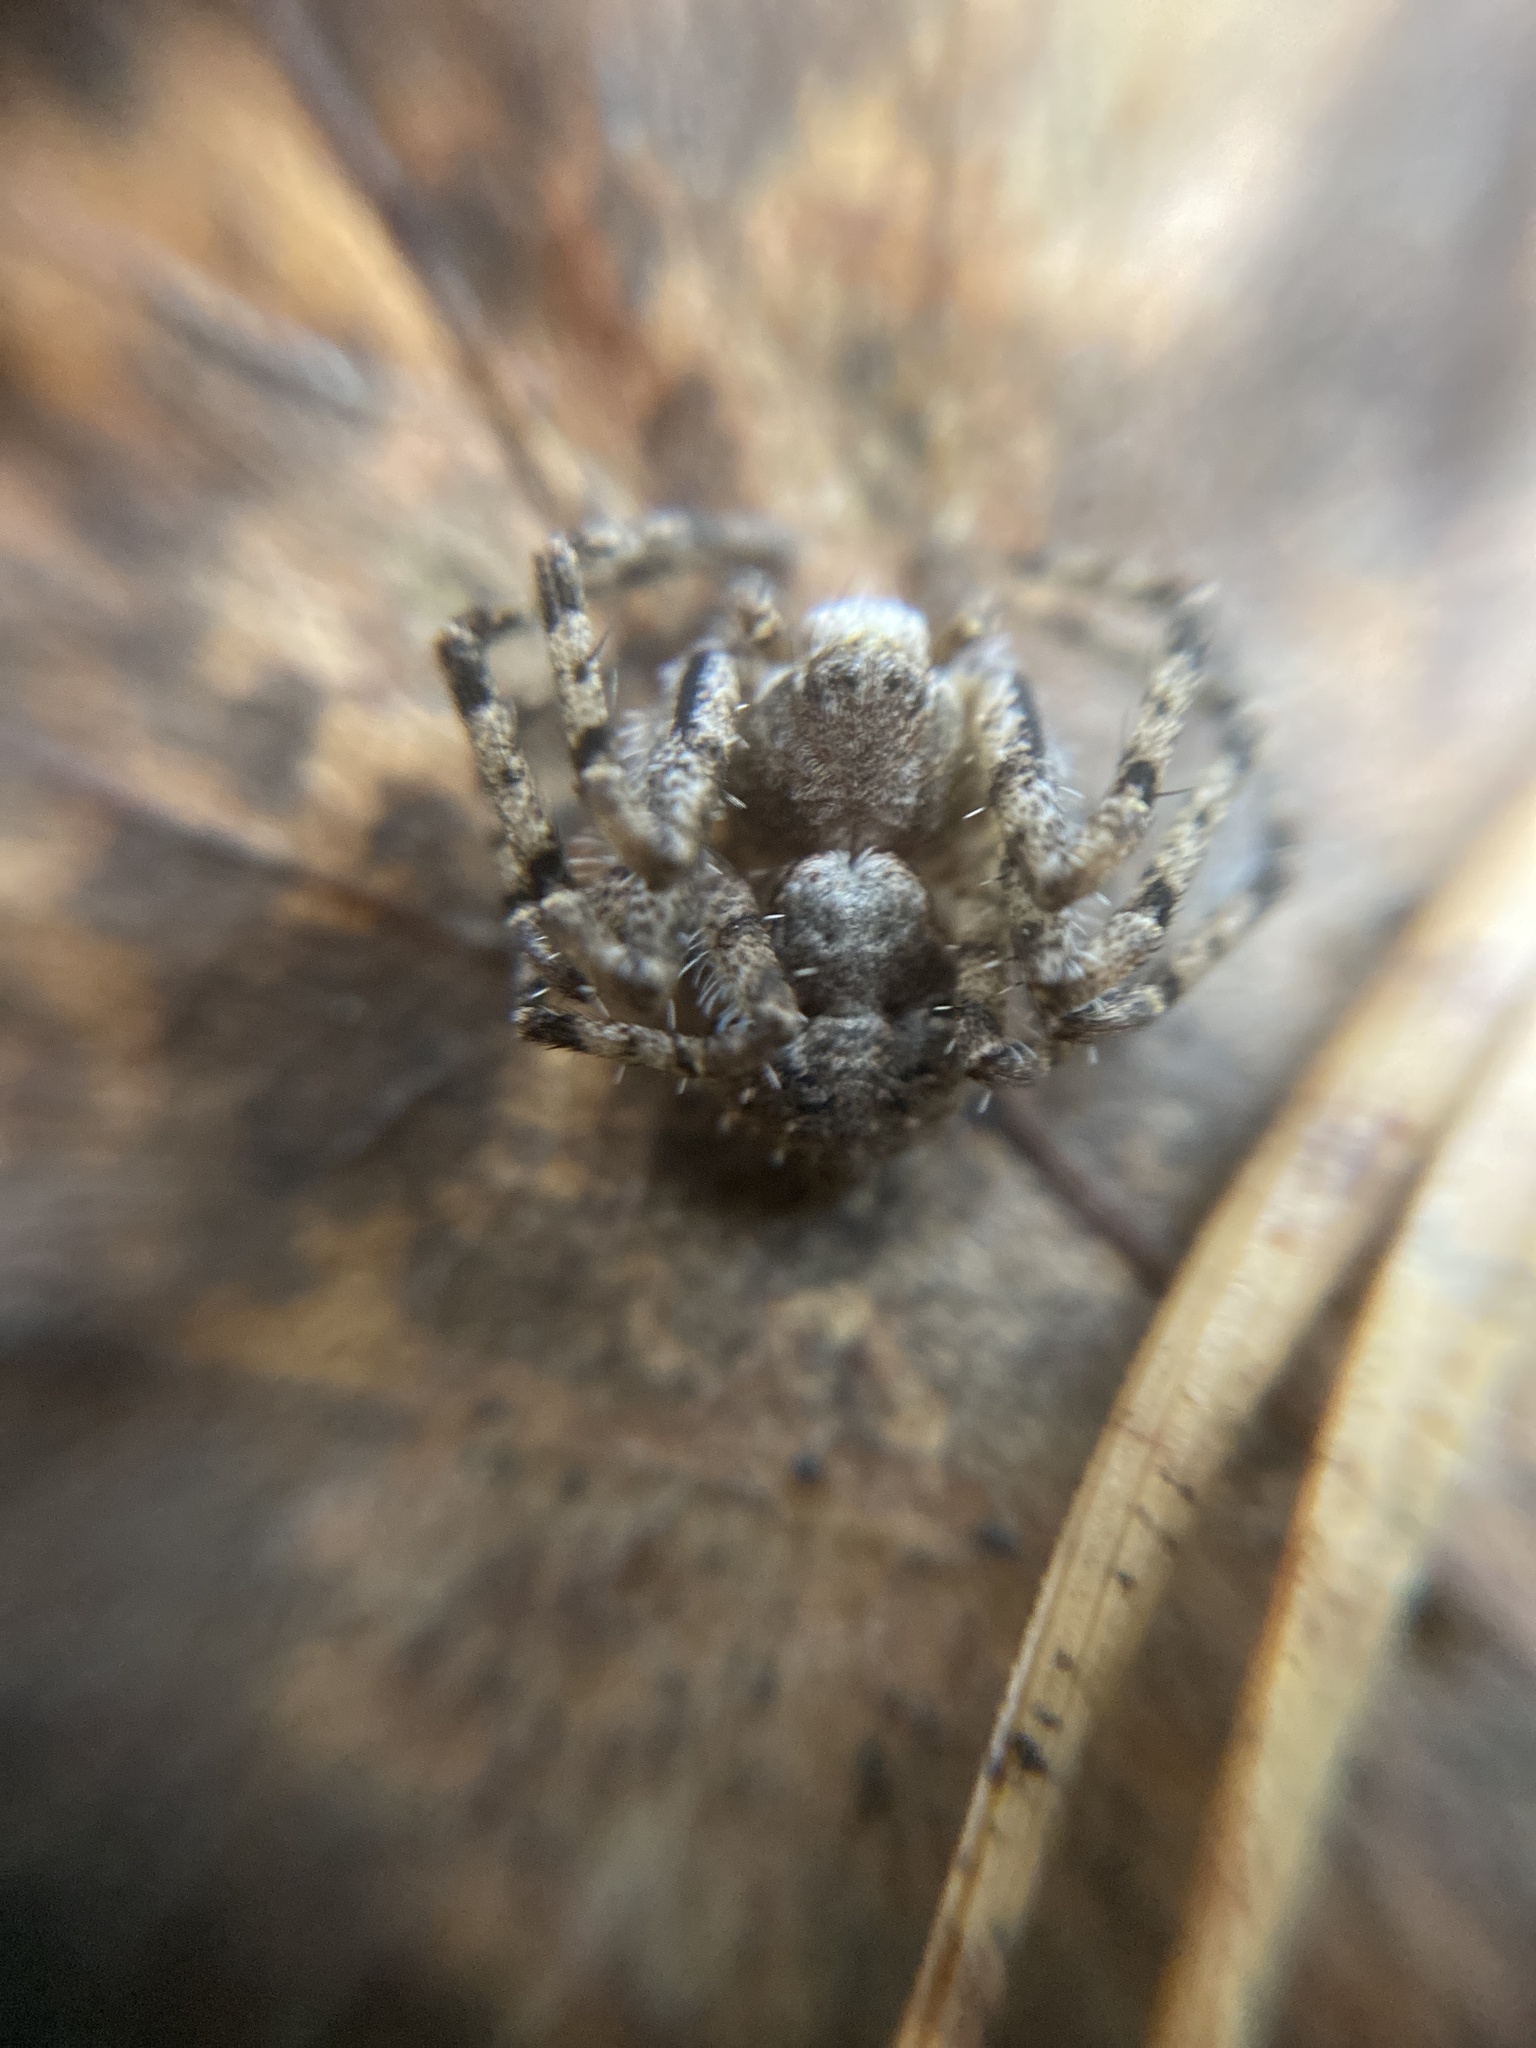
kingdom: Animalia
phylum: Arthropoda
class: Arachnida
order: Araneae
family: Philodromidae
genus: Philodromus
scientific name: Philodromus margaritatus
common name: Lichen running-spider
